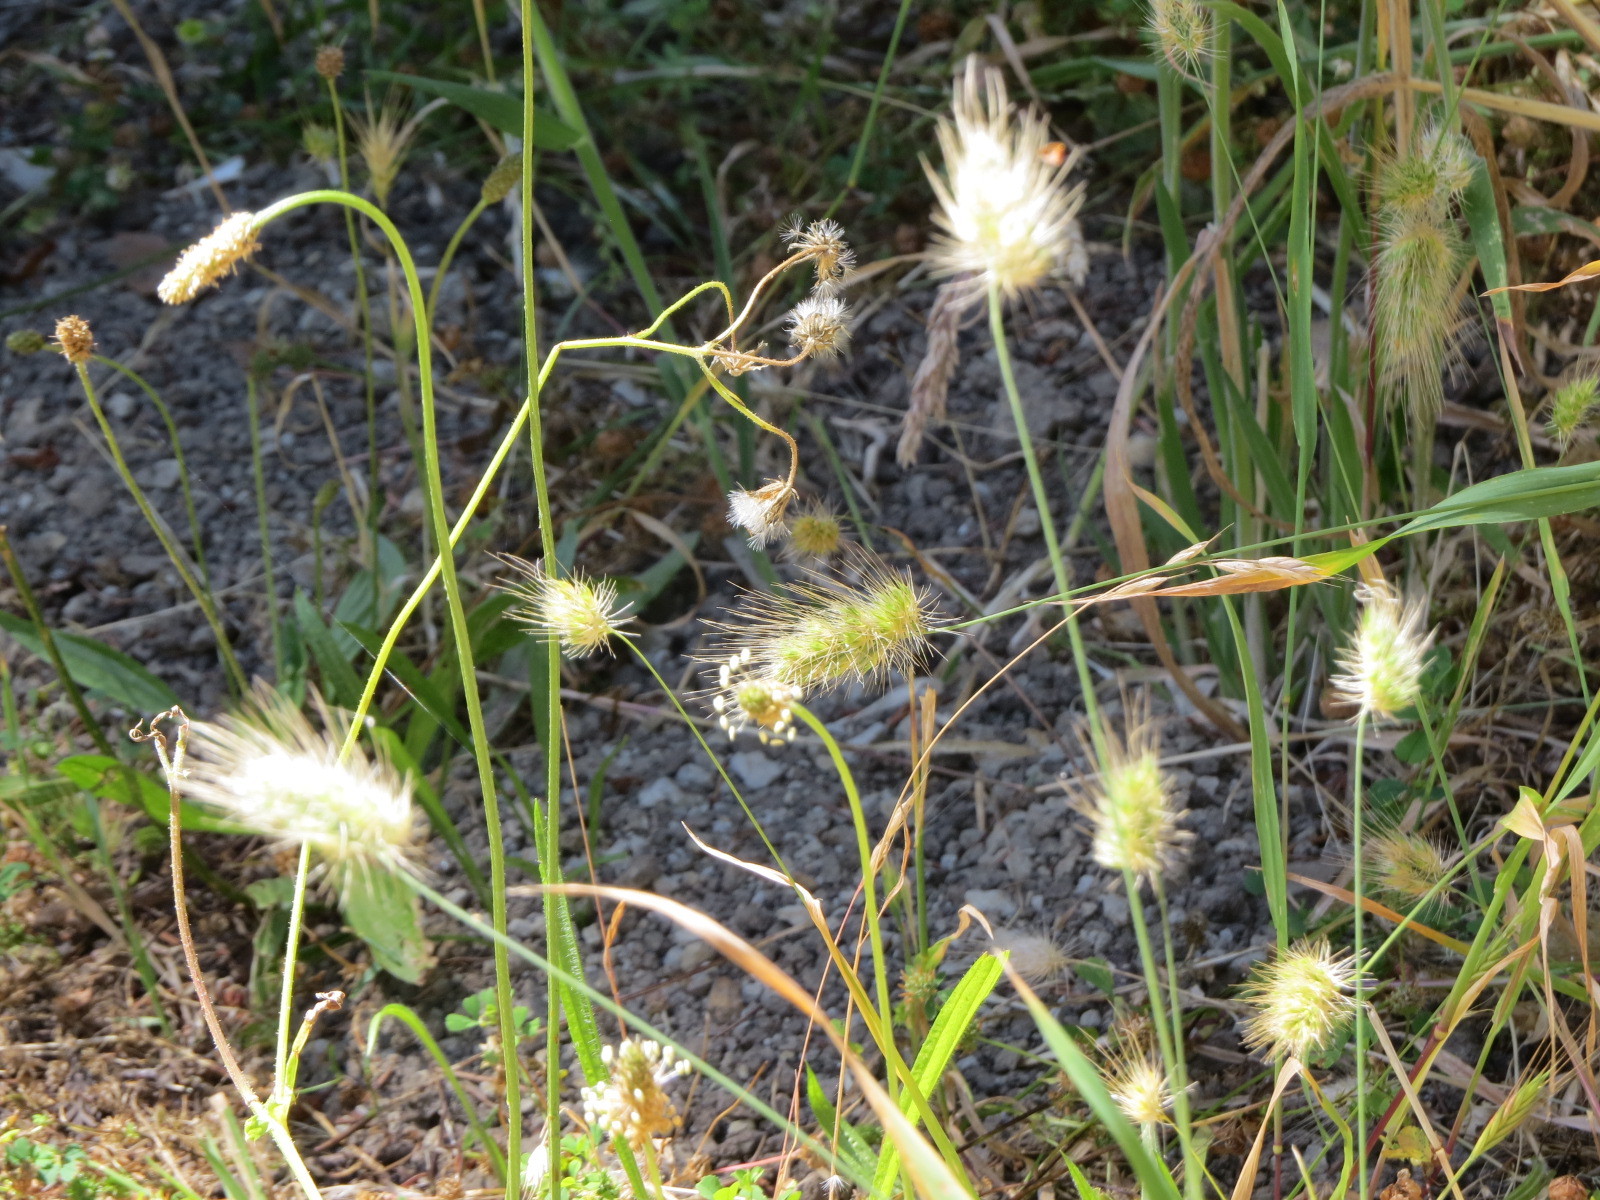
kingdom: Plantae
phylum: Tracheophyta
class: Liliopsida
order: Poales
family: Poaceae
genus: Cynosurus
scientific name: Cynosurus echinatus
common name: Rough dog's-tail
